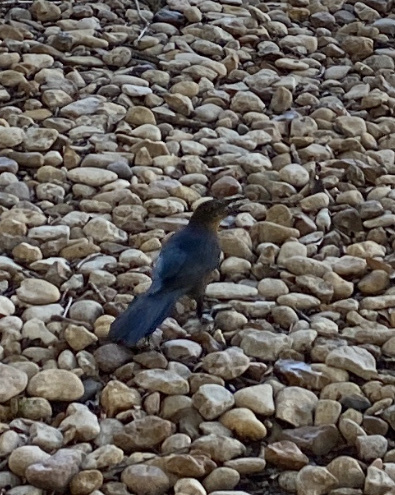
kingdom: Animalia
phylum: Chordata
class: Aves
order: Passeriformes
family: Icteridae
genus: Quiscalus
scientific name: Quiscalus mexicanus
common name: Great-tailed grackle
